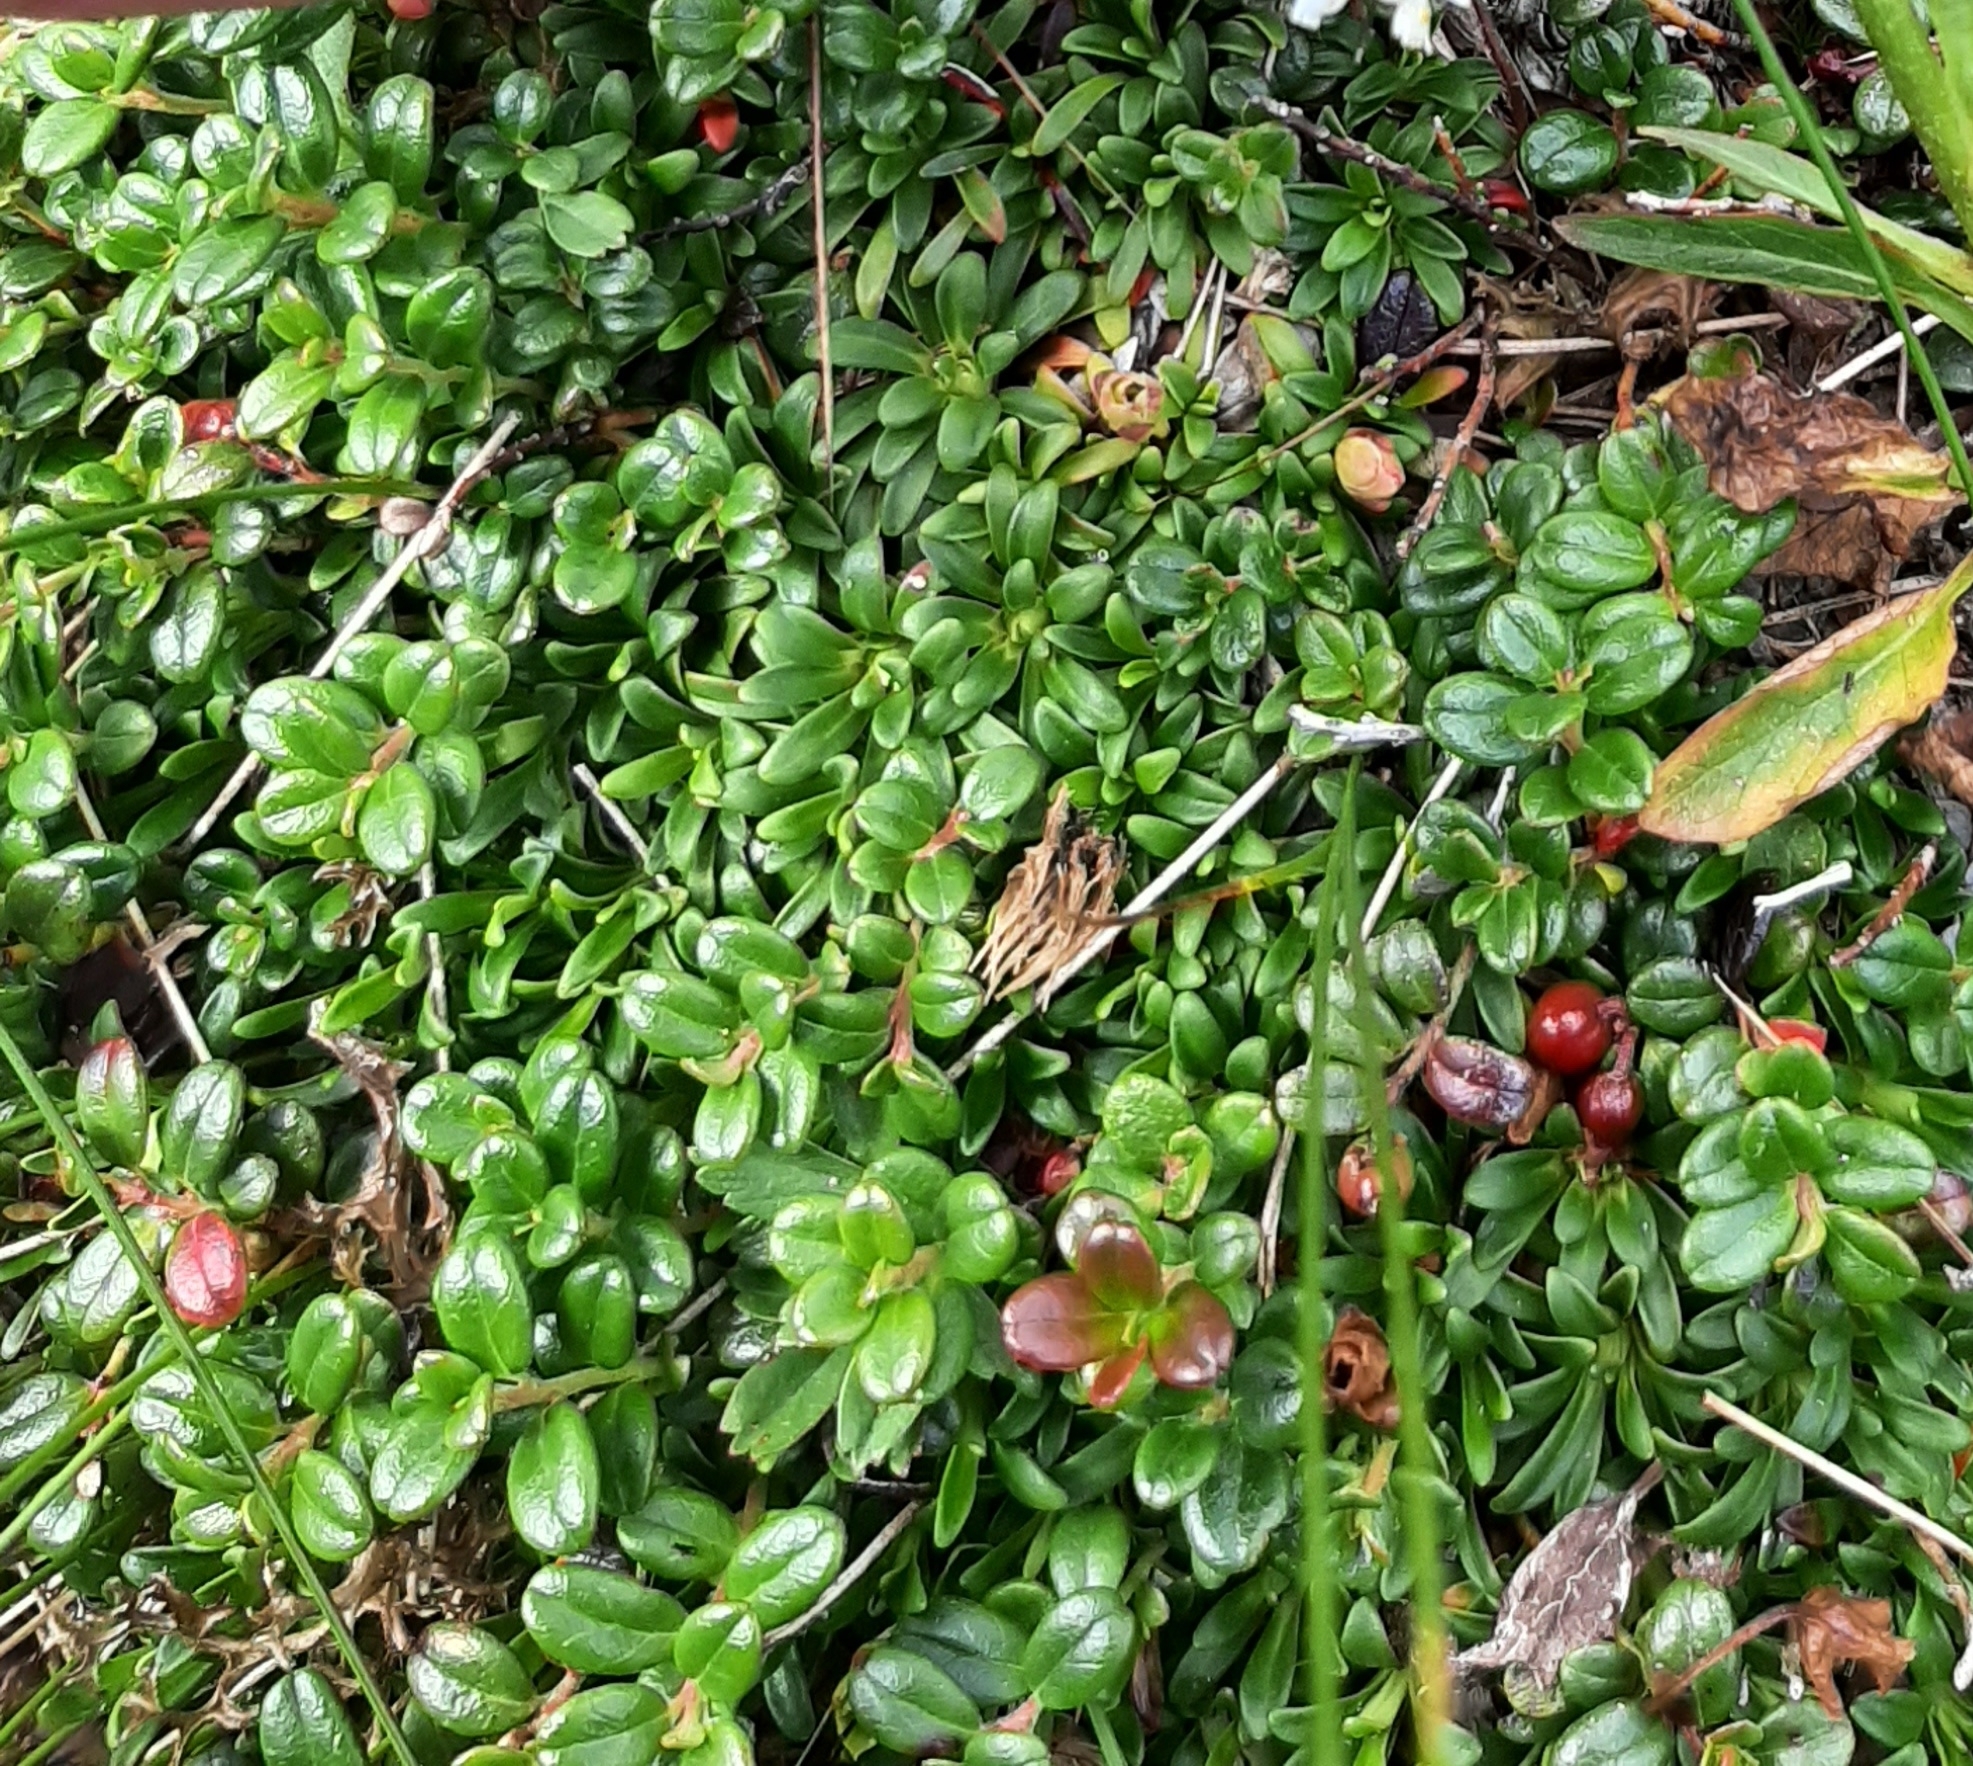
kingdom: Plantae
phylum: Tracheophyta
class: Magnoliopsida
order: Ericales
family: Ericaceae
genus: Vaccinium
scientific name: Vaccinium vitis-idaea
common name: Cowberry
